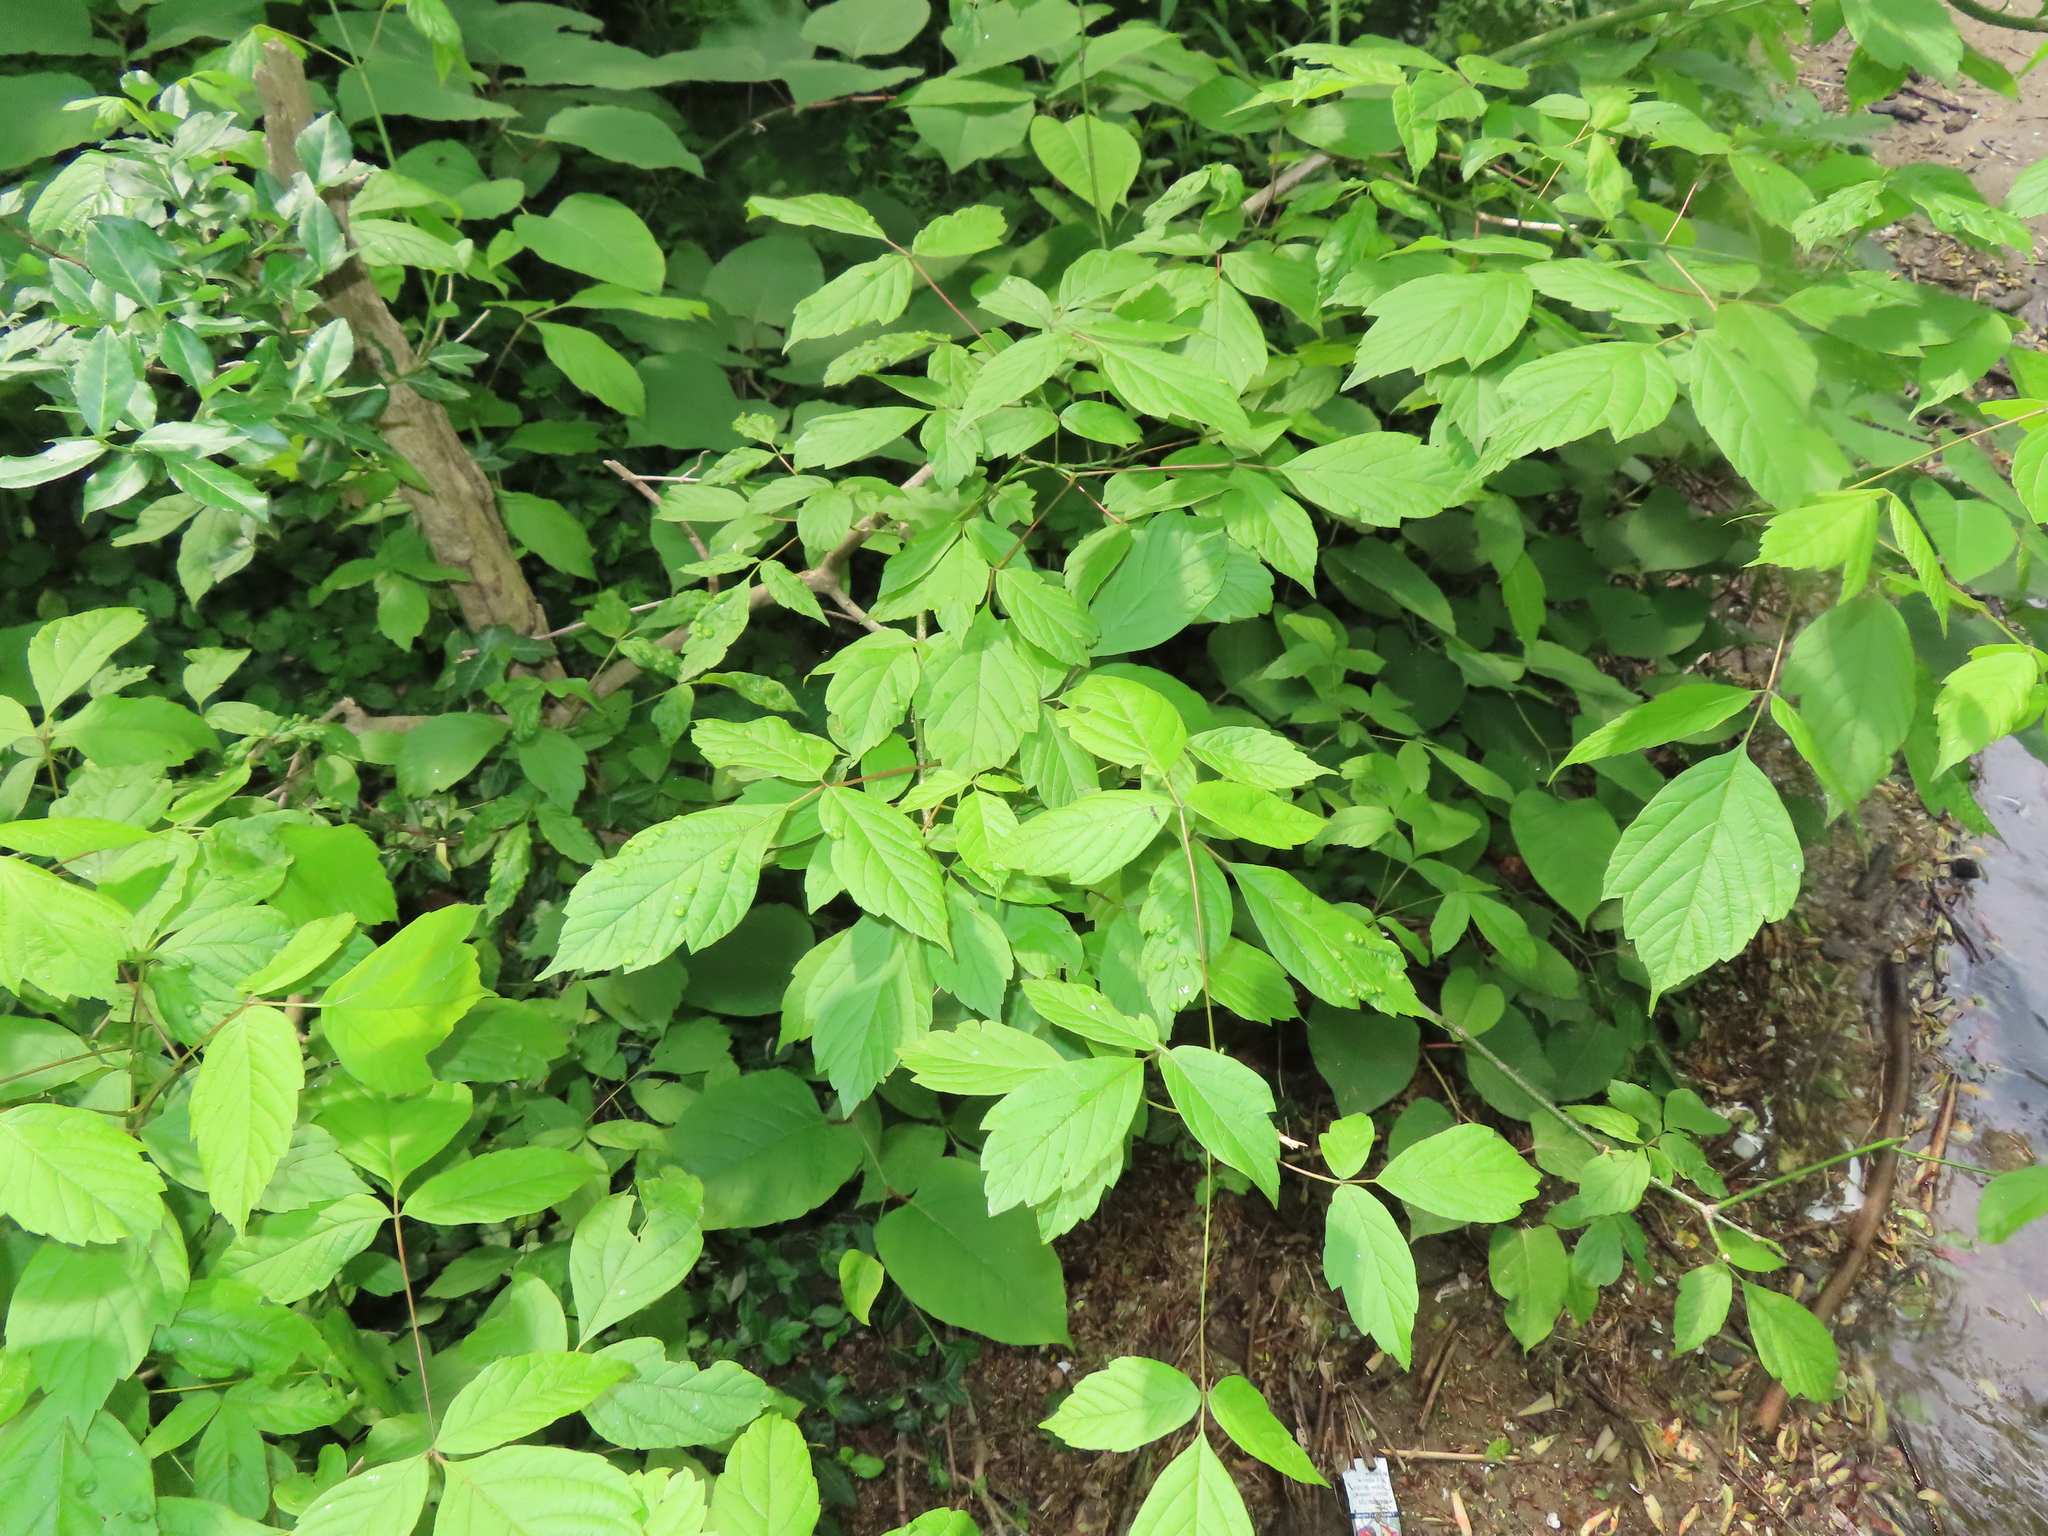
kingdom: Animalia
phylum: Arthropoda
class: Arachnida
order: Trombidiformes
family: Eriophyidae
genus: Aceria
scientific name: Aceria
